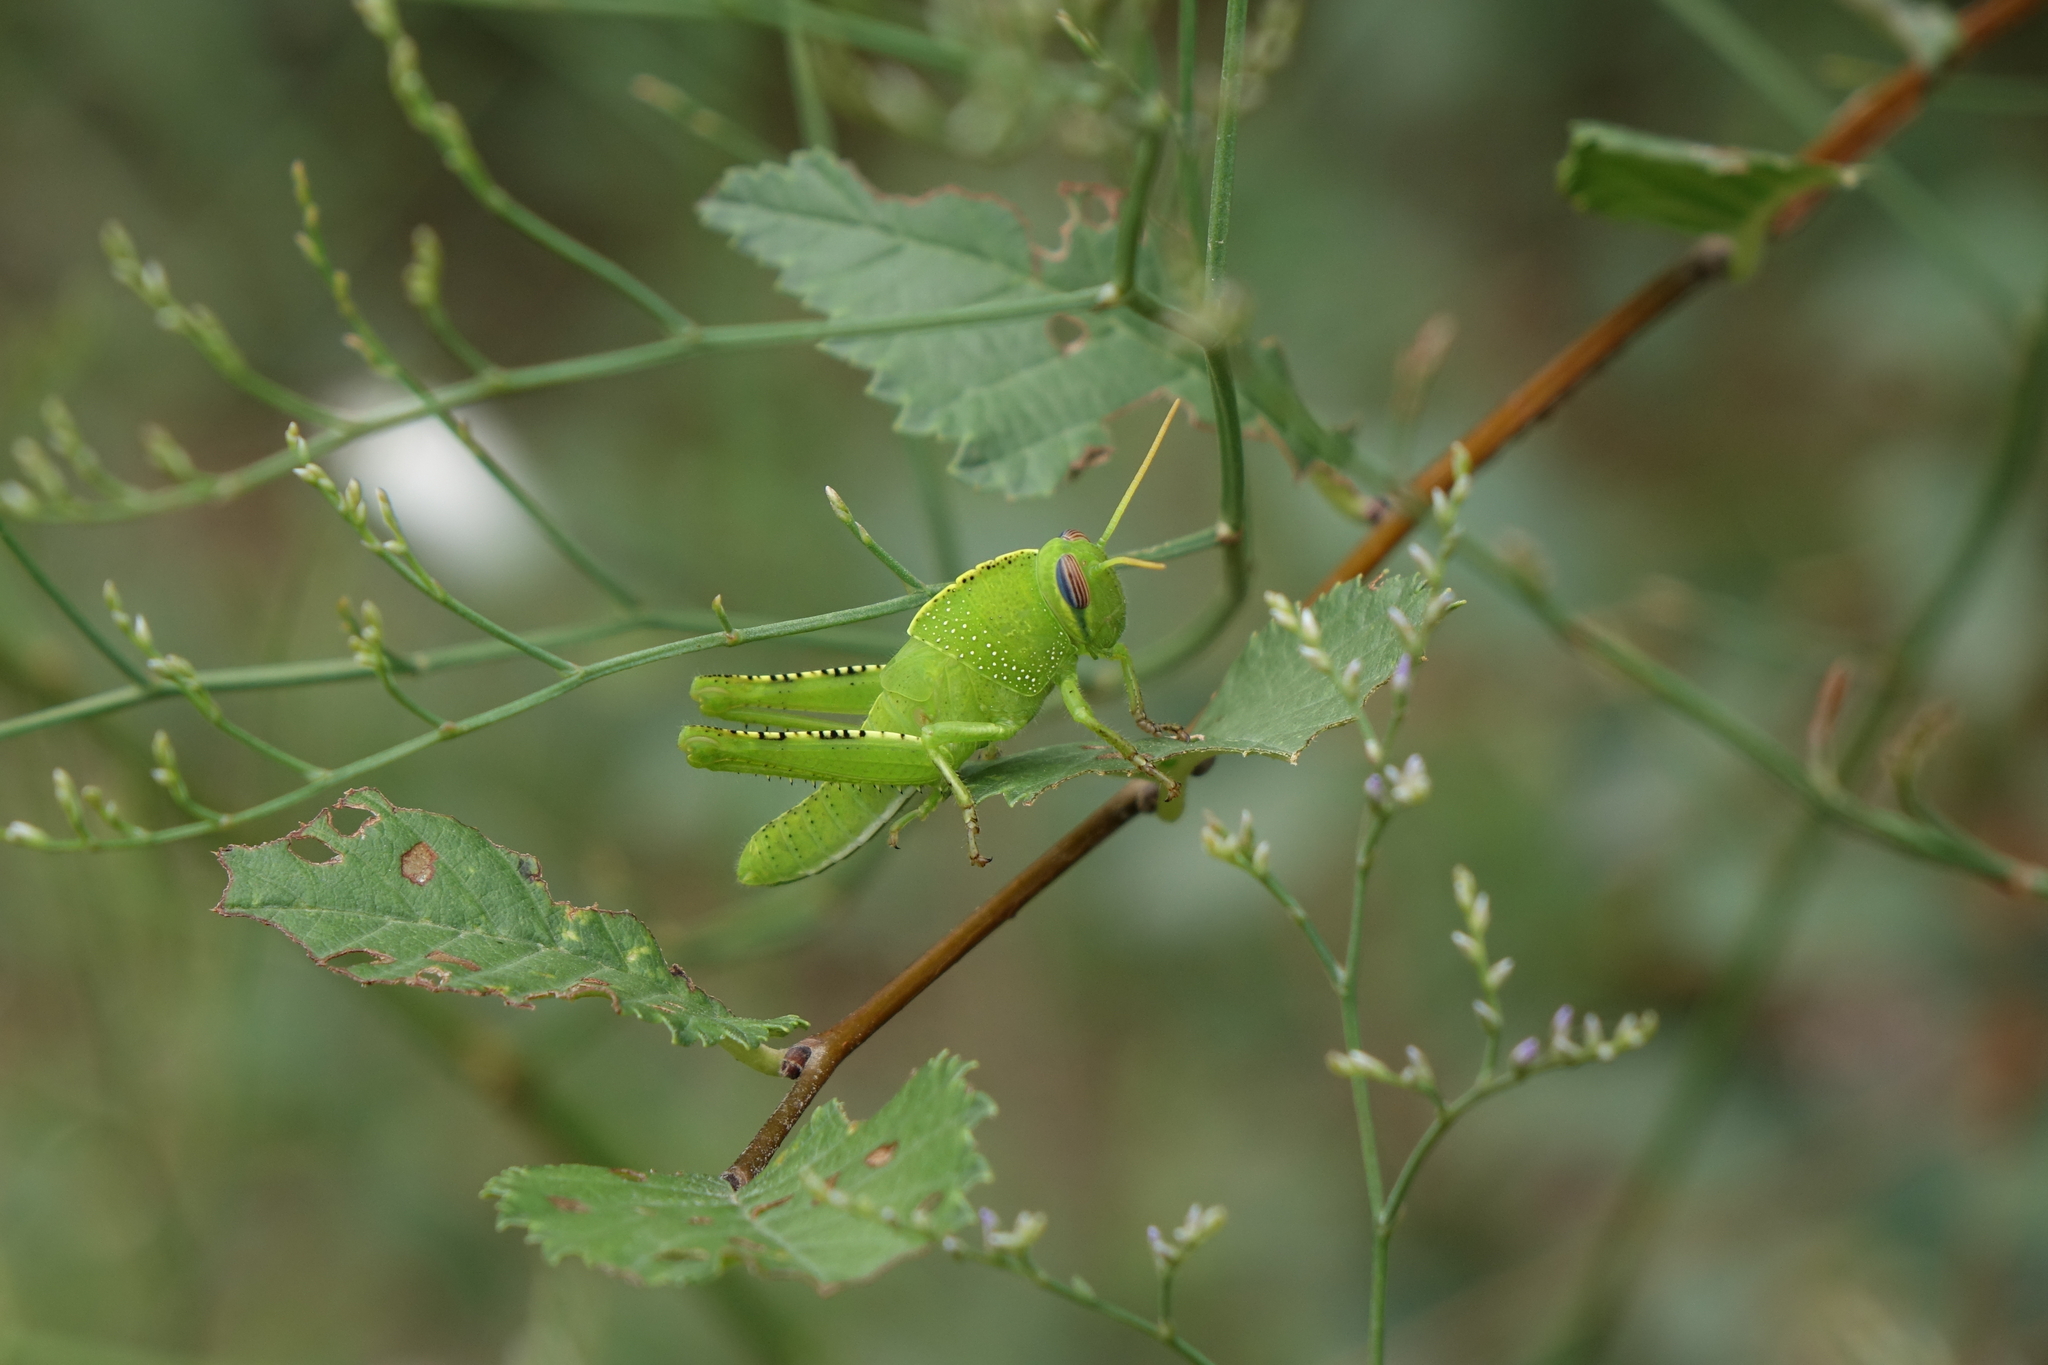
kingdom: Animalia
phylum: Arthropoda
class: Insecta
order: Orthoptera
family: Acrididae
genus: Anacridium
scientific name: Anacridium aegyptium
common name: Egyptian grasshopper
